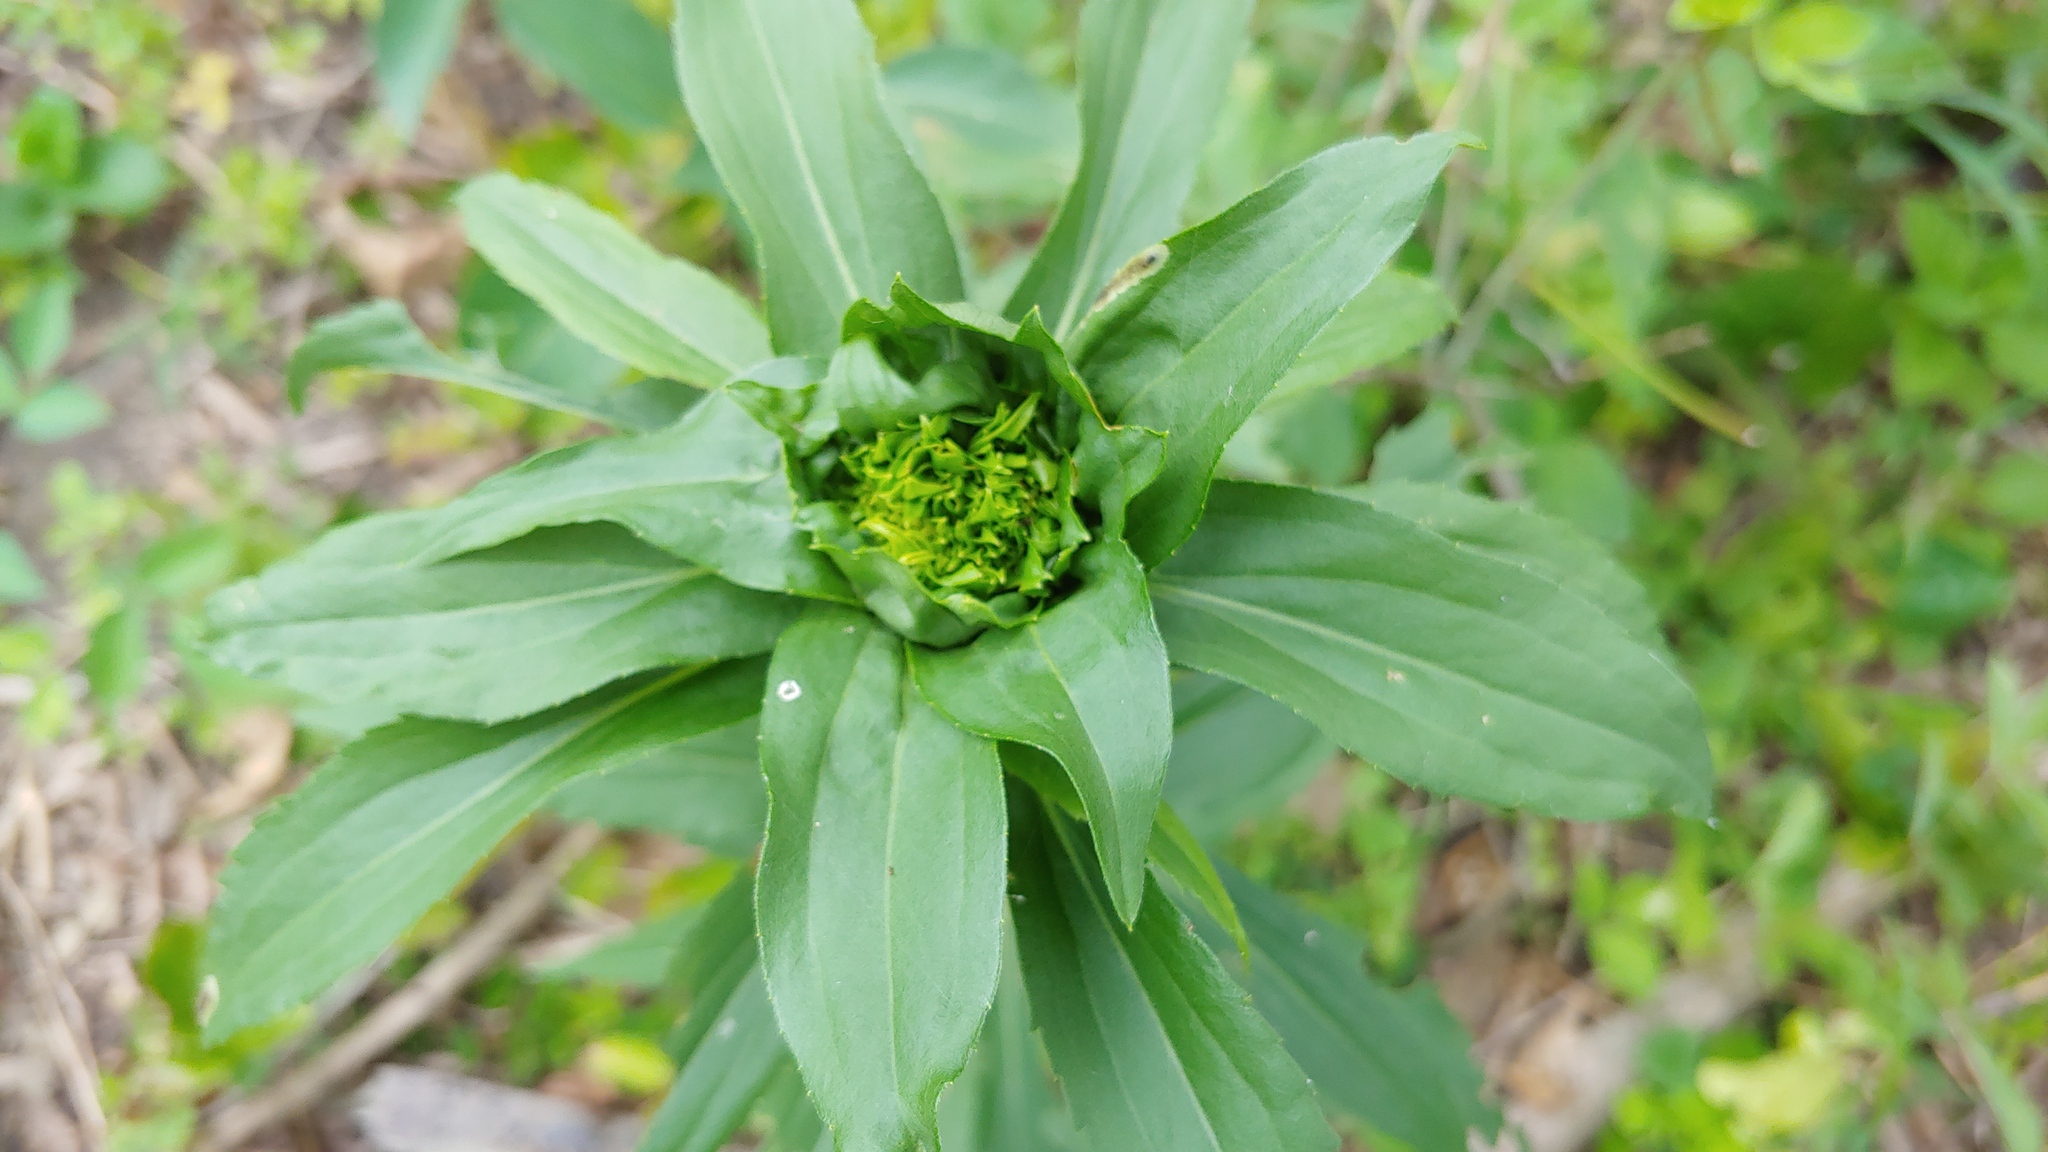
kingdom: Animalia
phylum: Arthropoda
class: Insecta
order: Diptera
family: Cecidomyiidae
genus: Rhopalomyia
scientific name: Rhopalomyia capitata
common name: Giant goldenrod bunch gall midge
